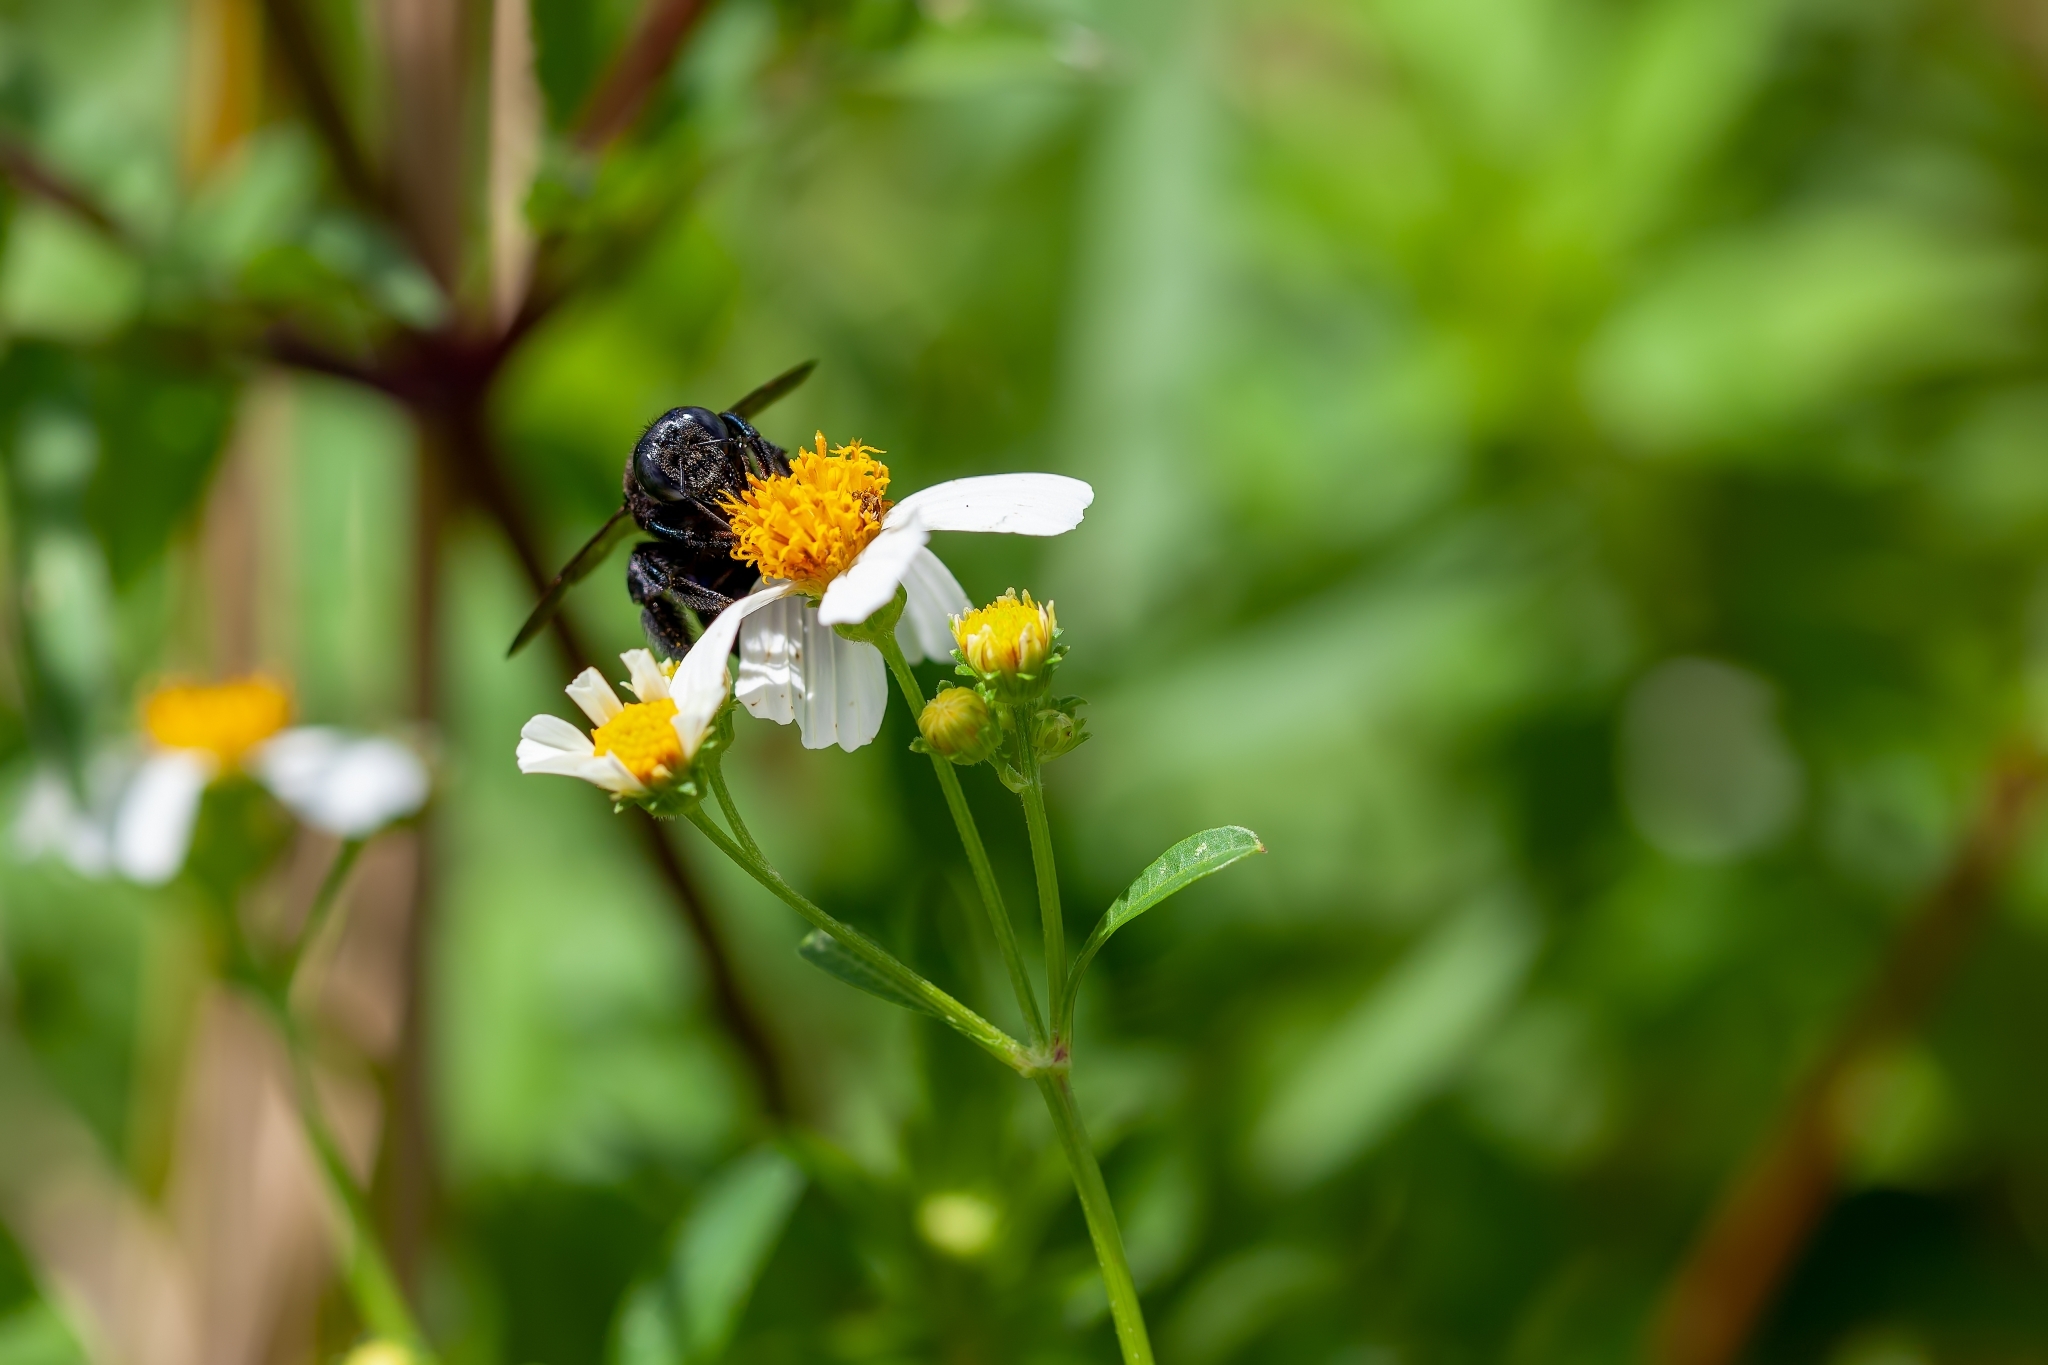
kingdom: Animalia
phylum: Arthropoda
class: Insecta
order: Hymenoptera
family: Apidae
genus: Xylocopa
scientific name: Xylocopa micans
